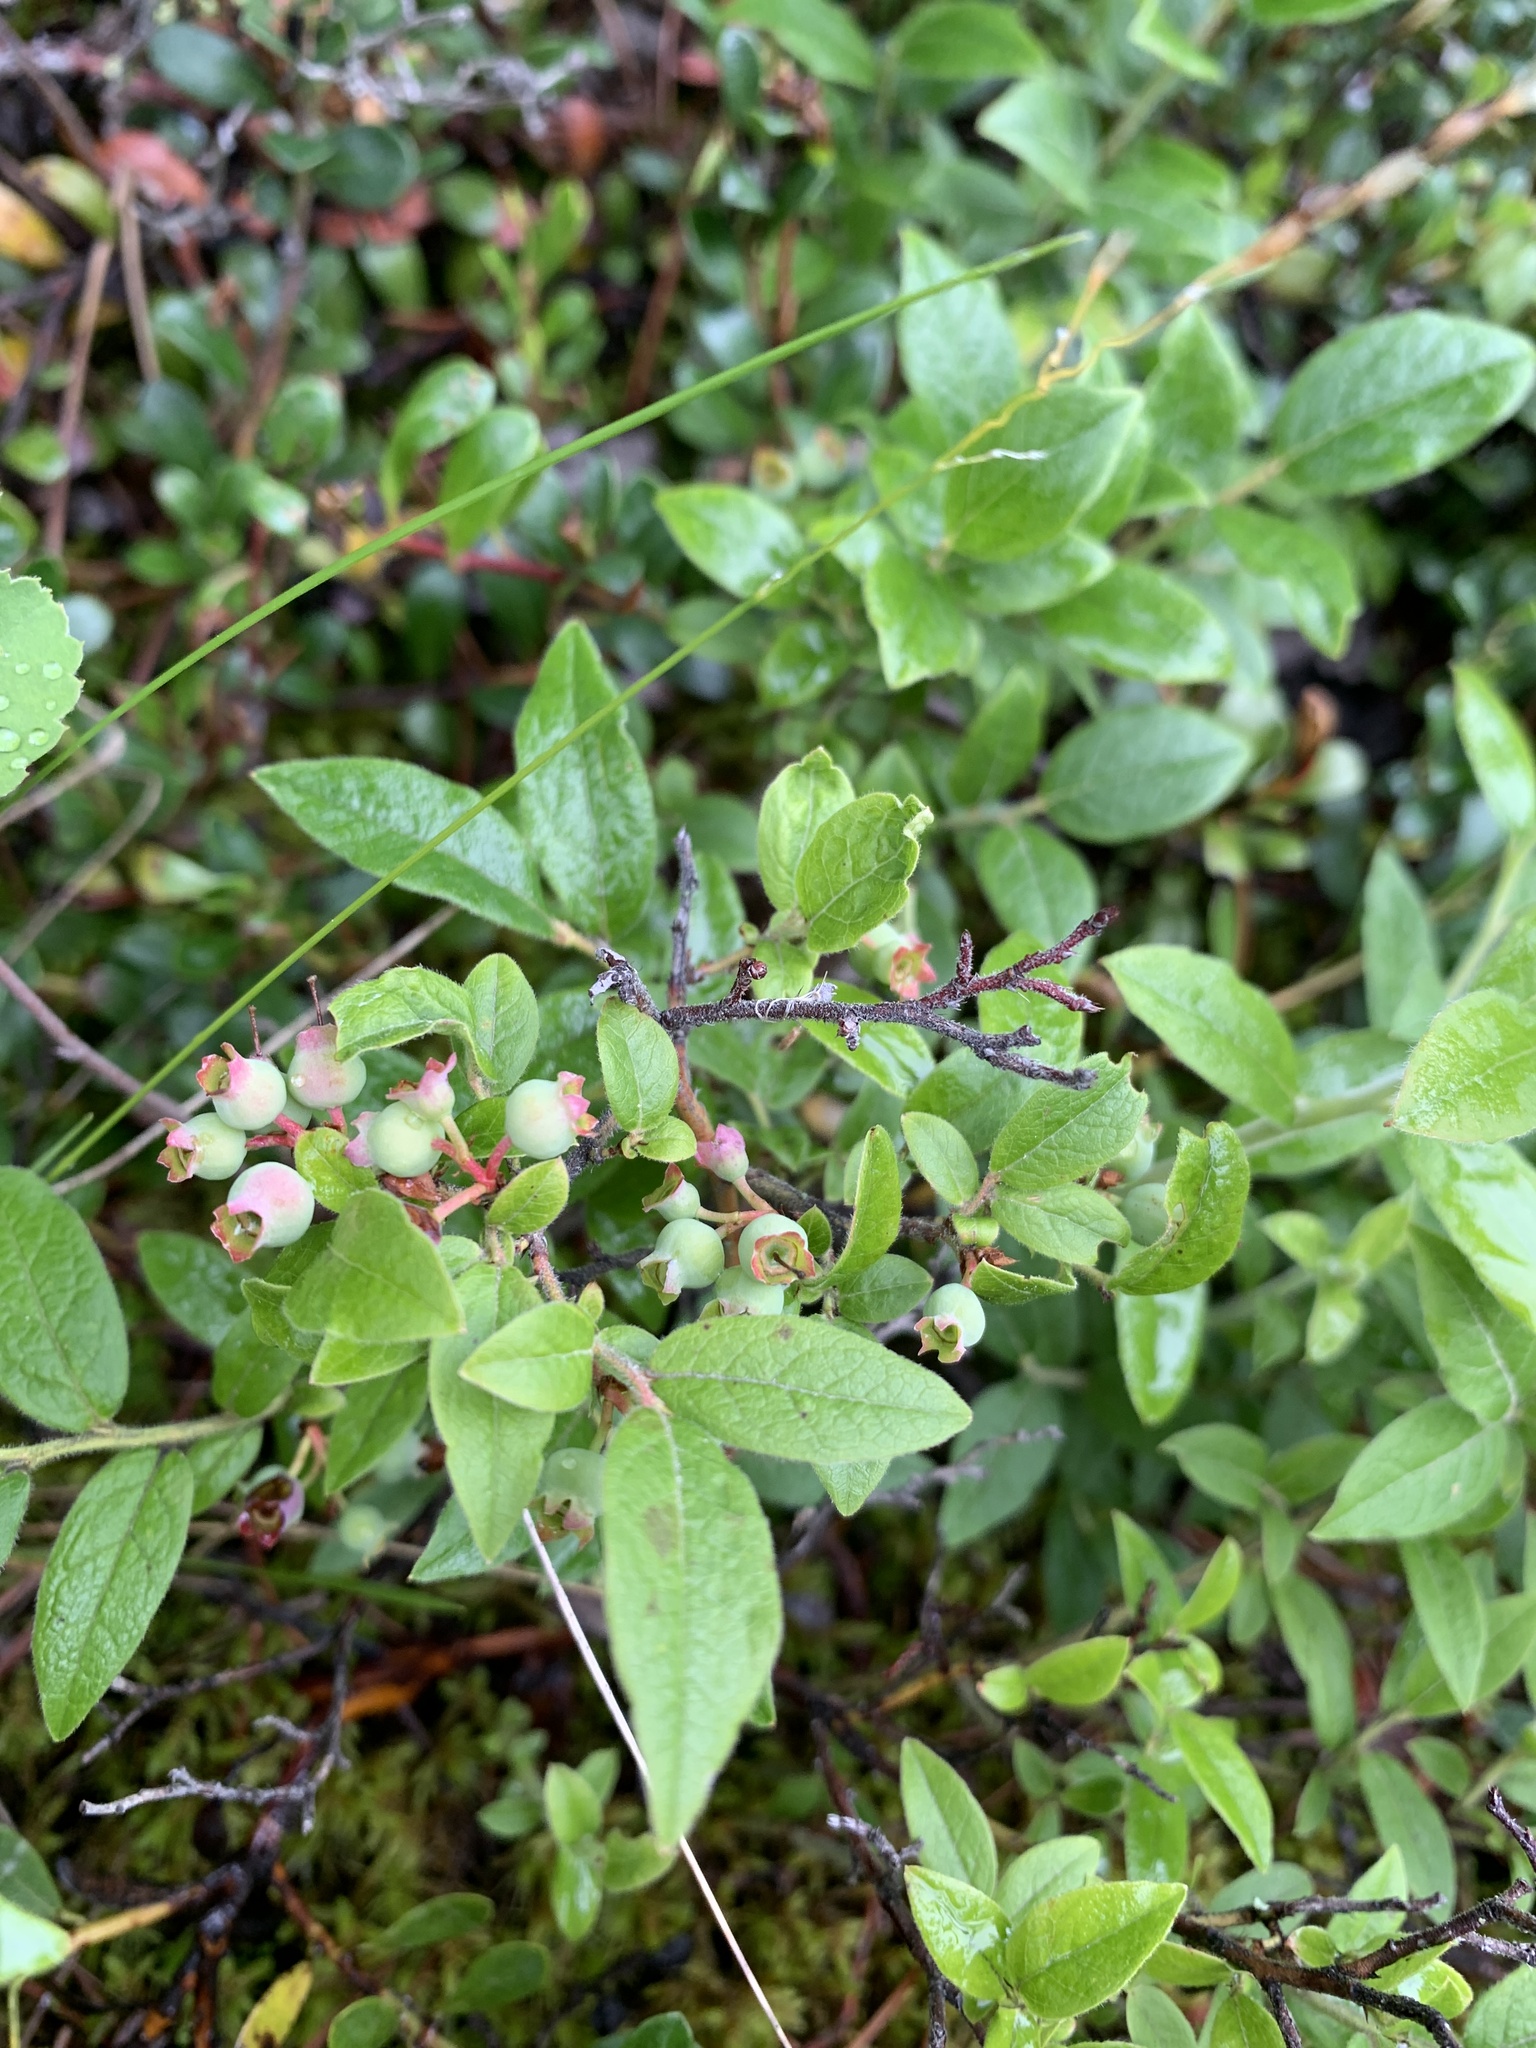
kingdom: Plantae
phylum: Tracheophyta
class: Magnoliopsida
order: Ericales
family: Ericaceae
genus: Vaccinium
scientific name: Vaccinium myrtilloides
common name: Canada blueberry
